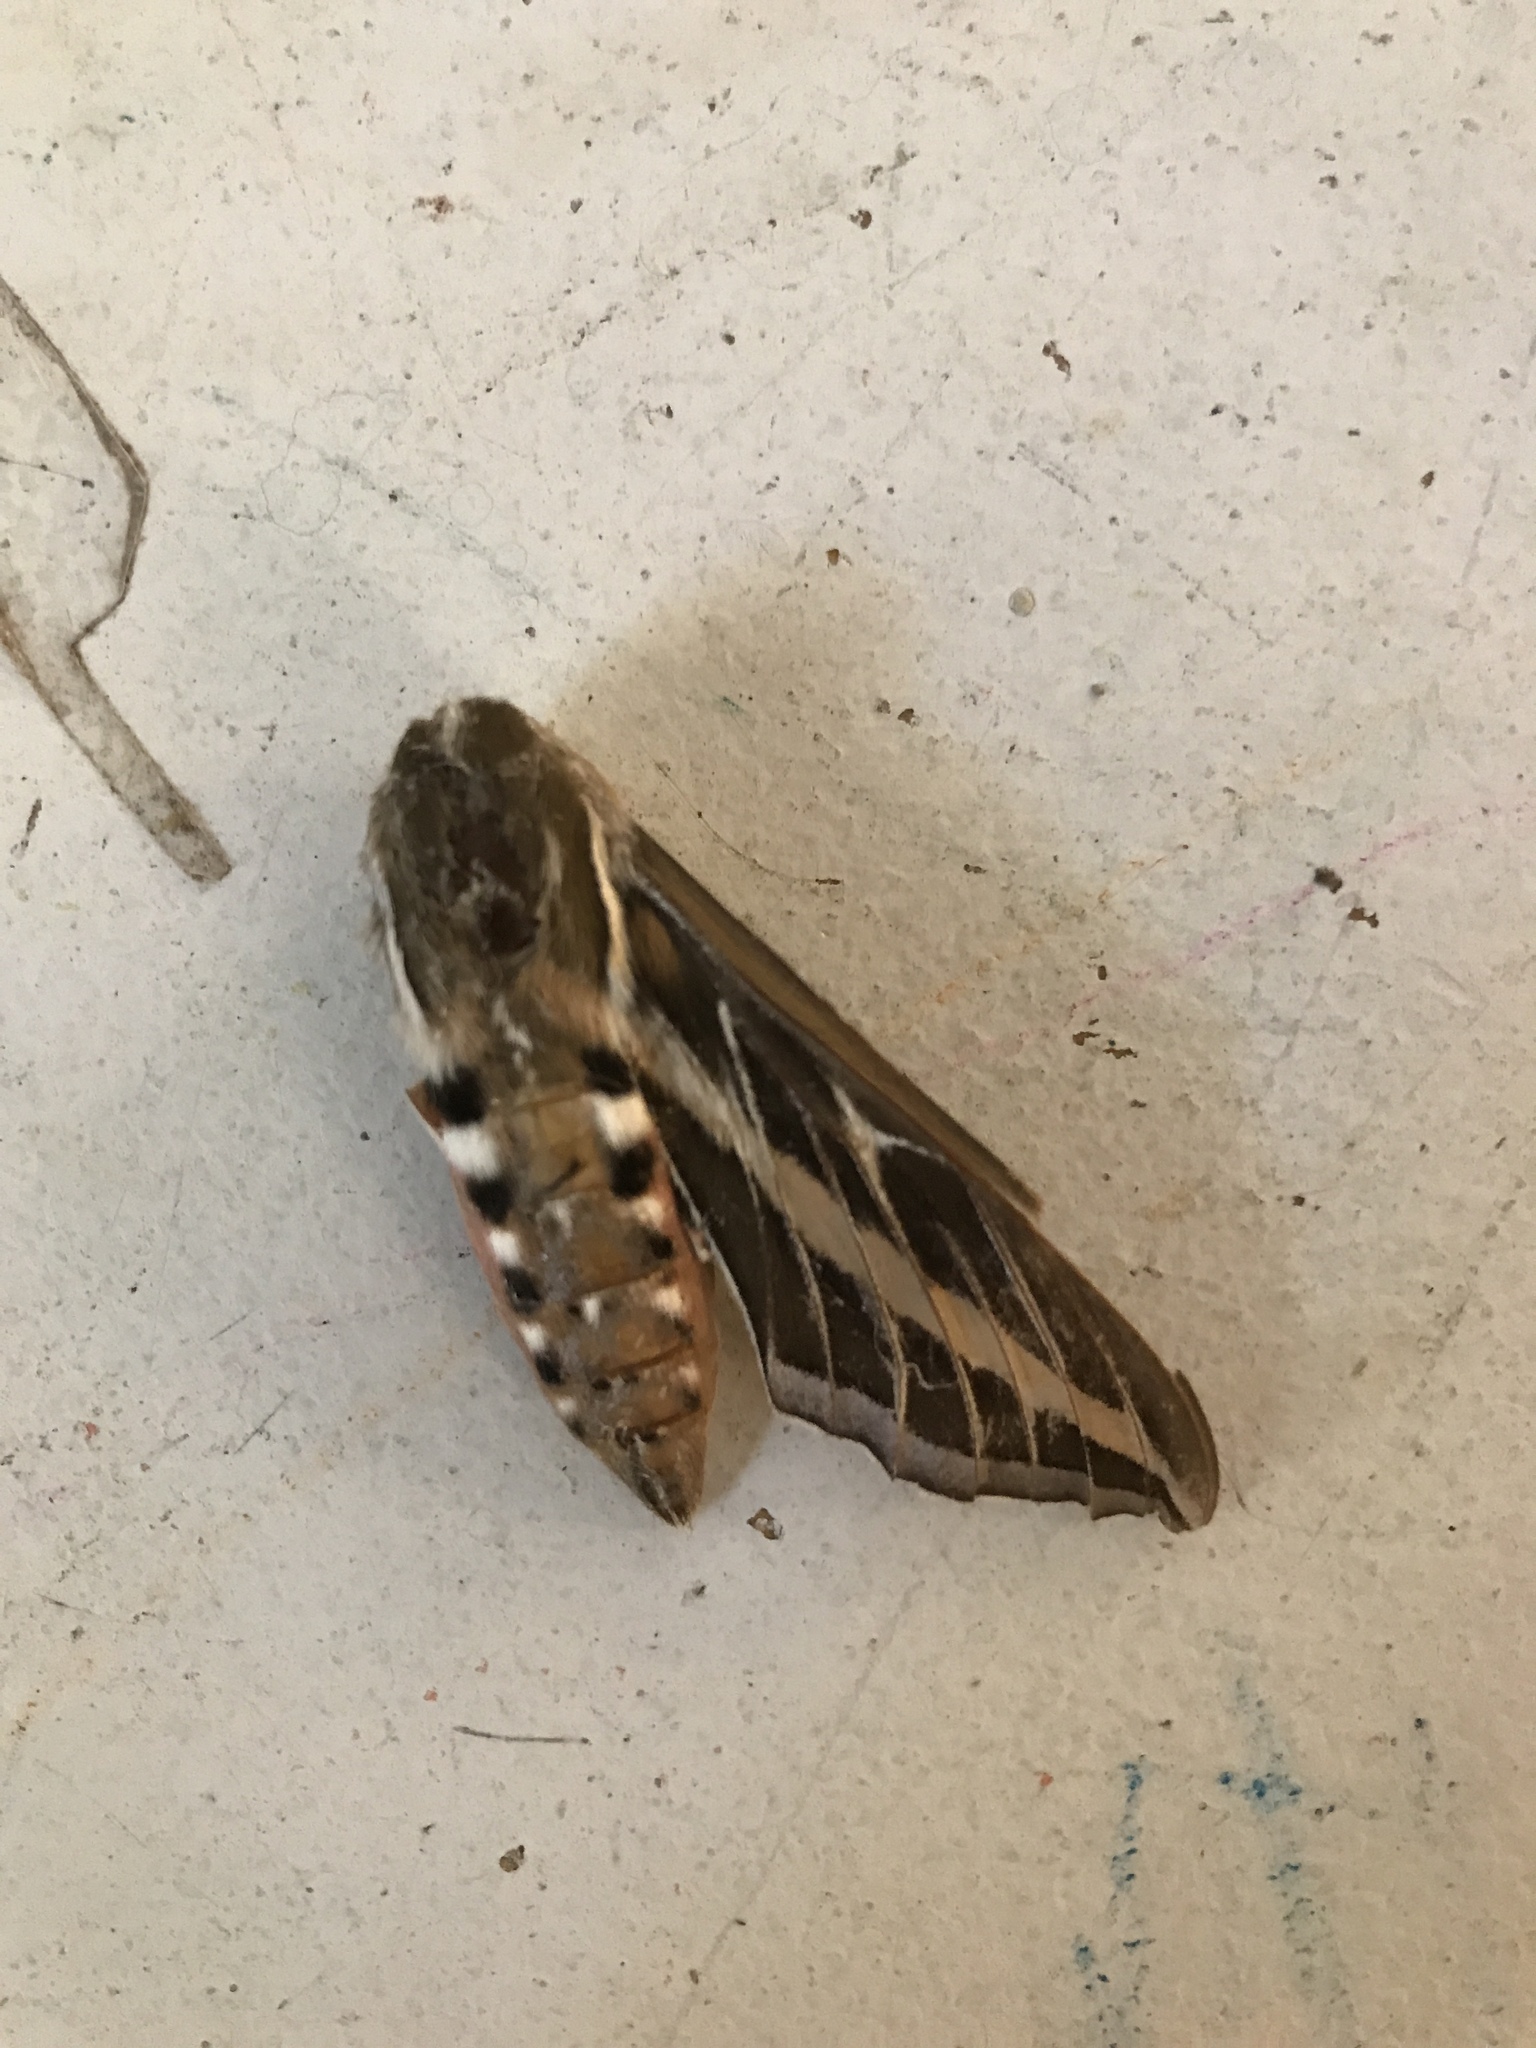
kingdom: Animalia
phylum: Arthropoda
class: Insecta
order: Lepidoptera
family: Sphingidae
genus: Hyles
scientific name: Hyles lineata
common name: White-lined sphinx
